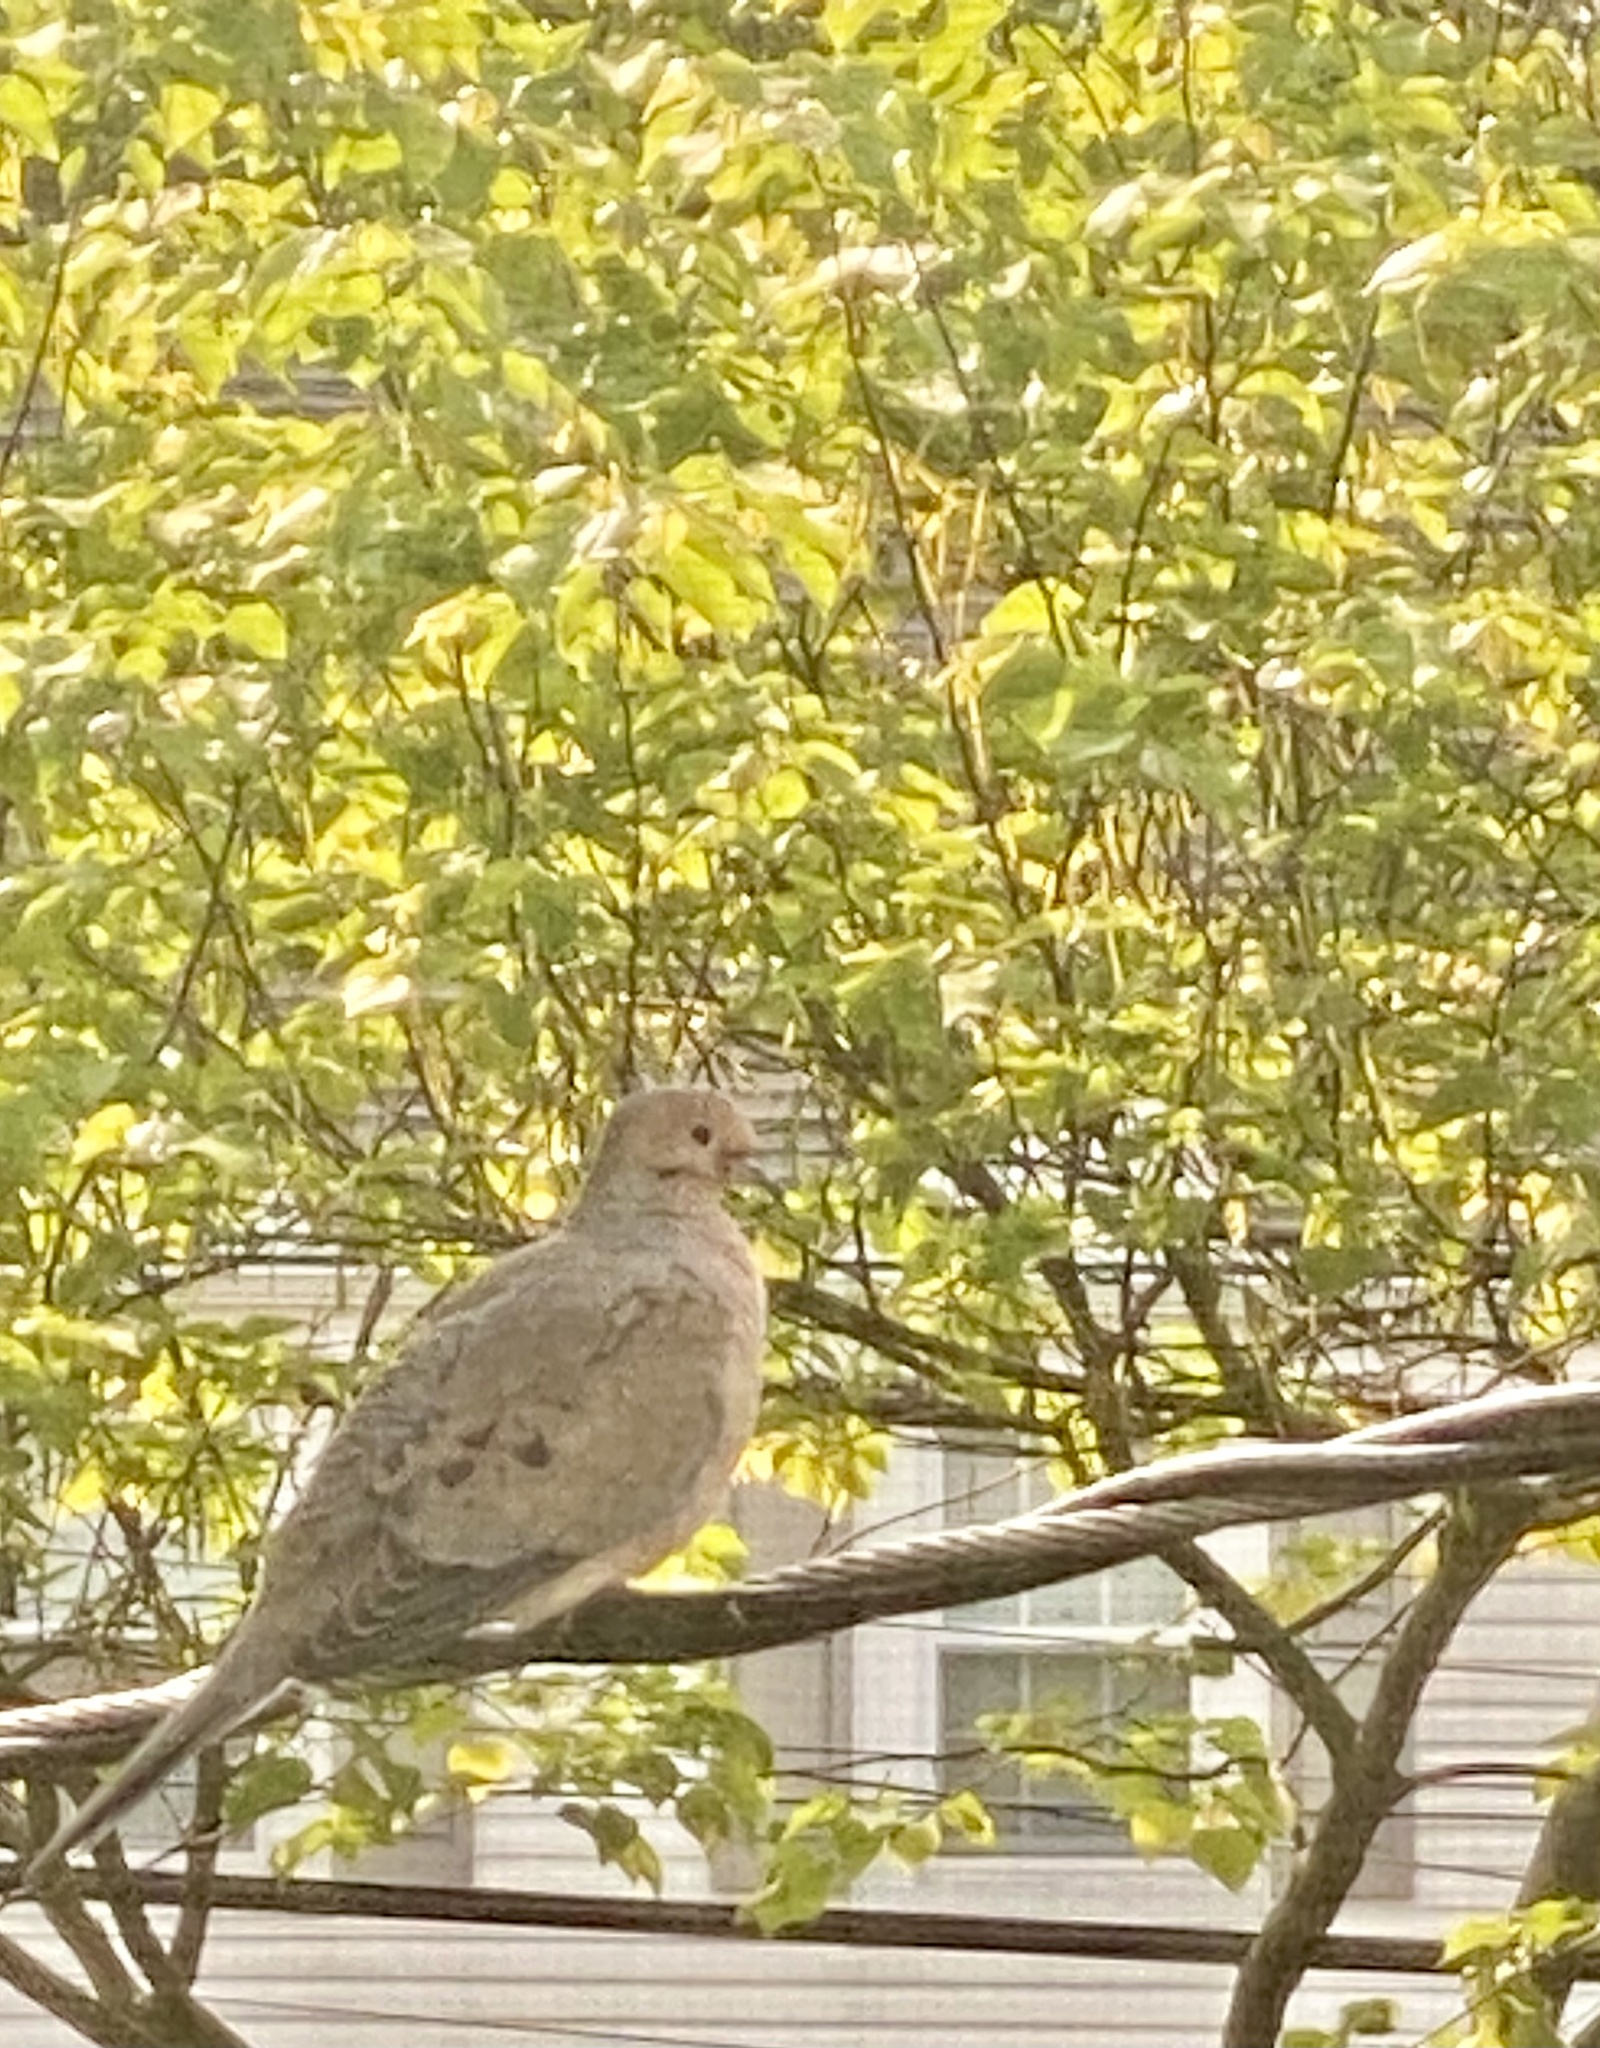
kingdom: Animalia
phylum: Chordata
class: Aves
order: Columbiformes
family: Columbidae
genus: Zenaida
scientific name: Zenaida macroura
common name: Mourning dove
